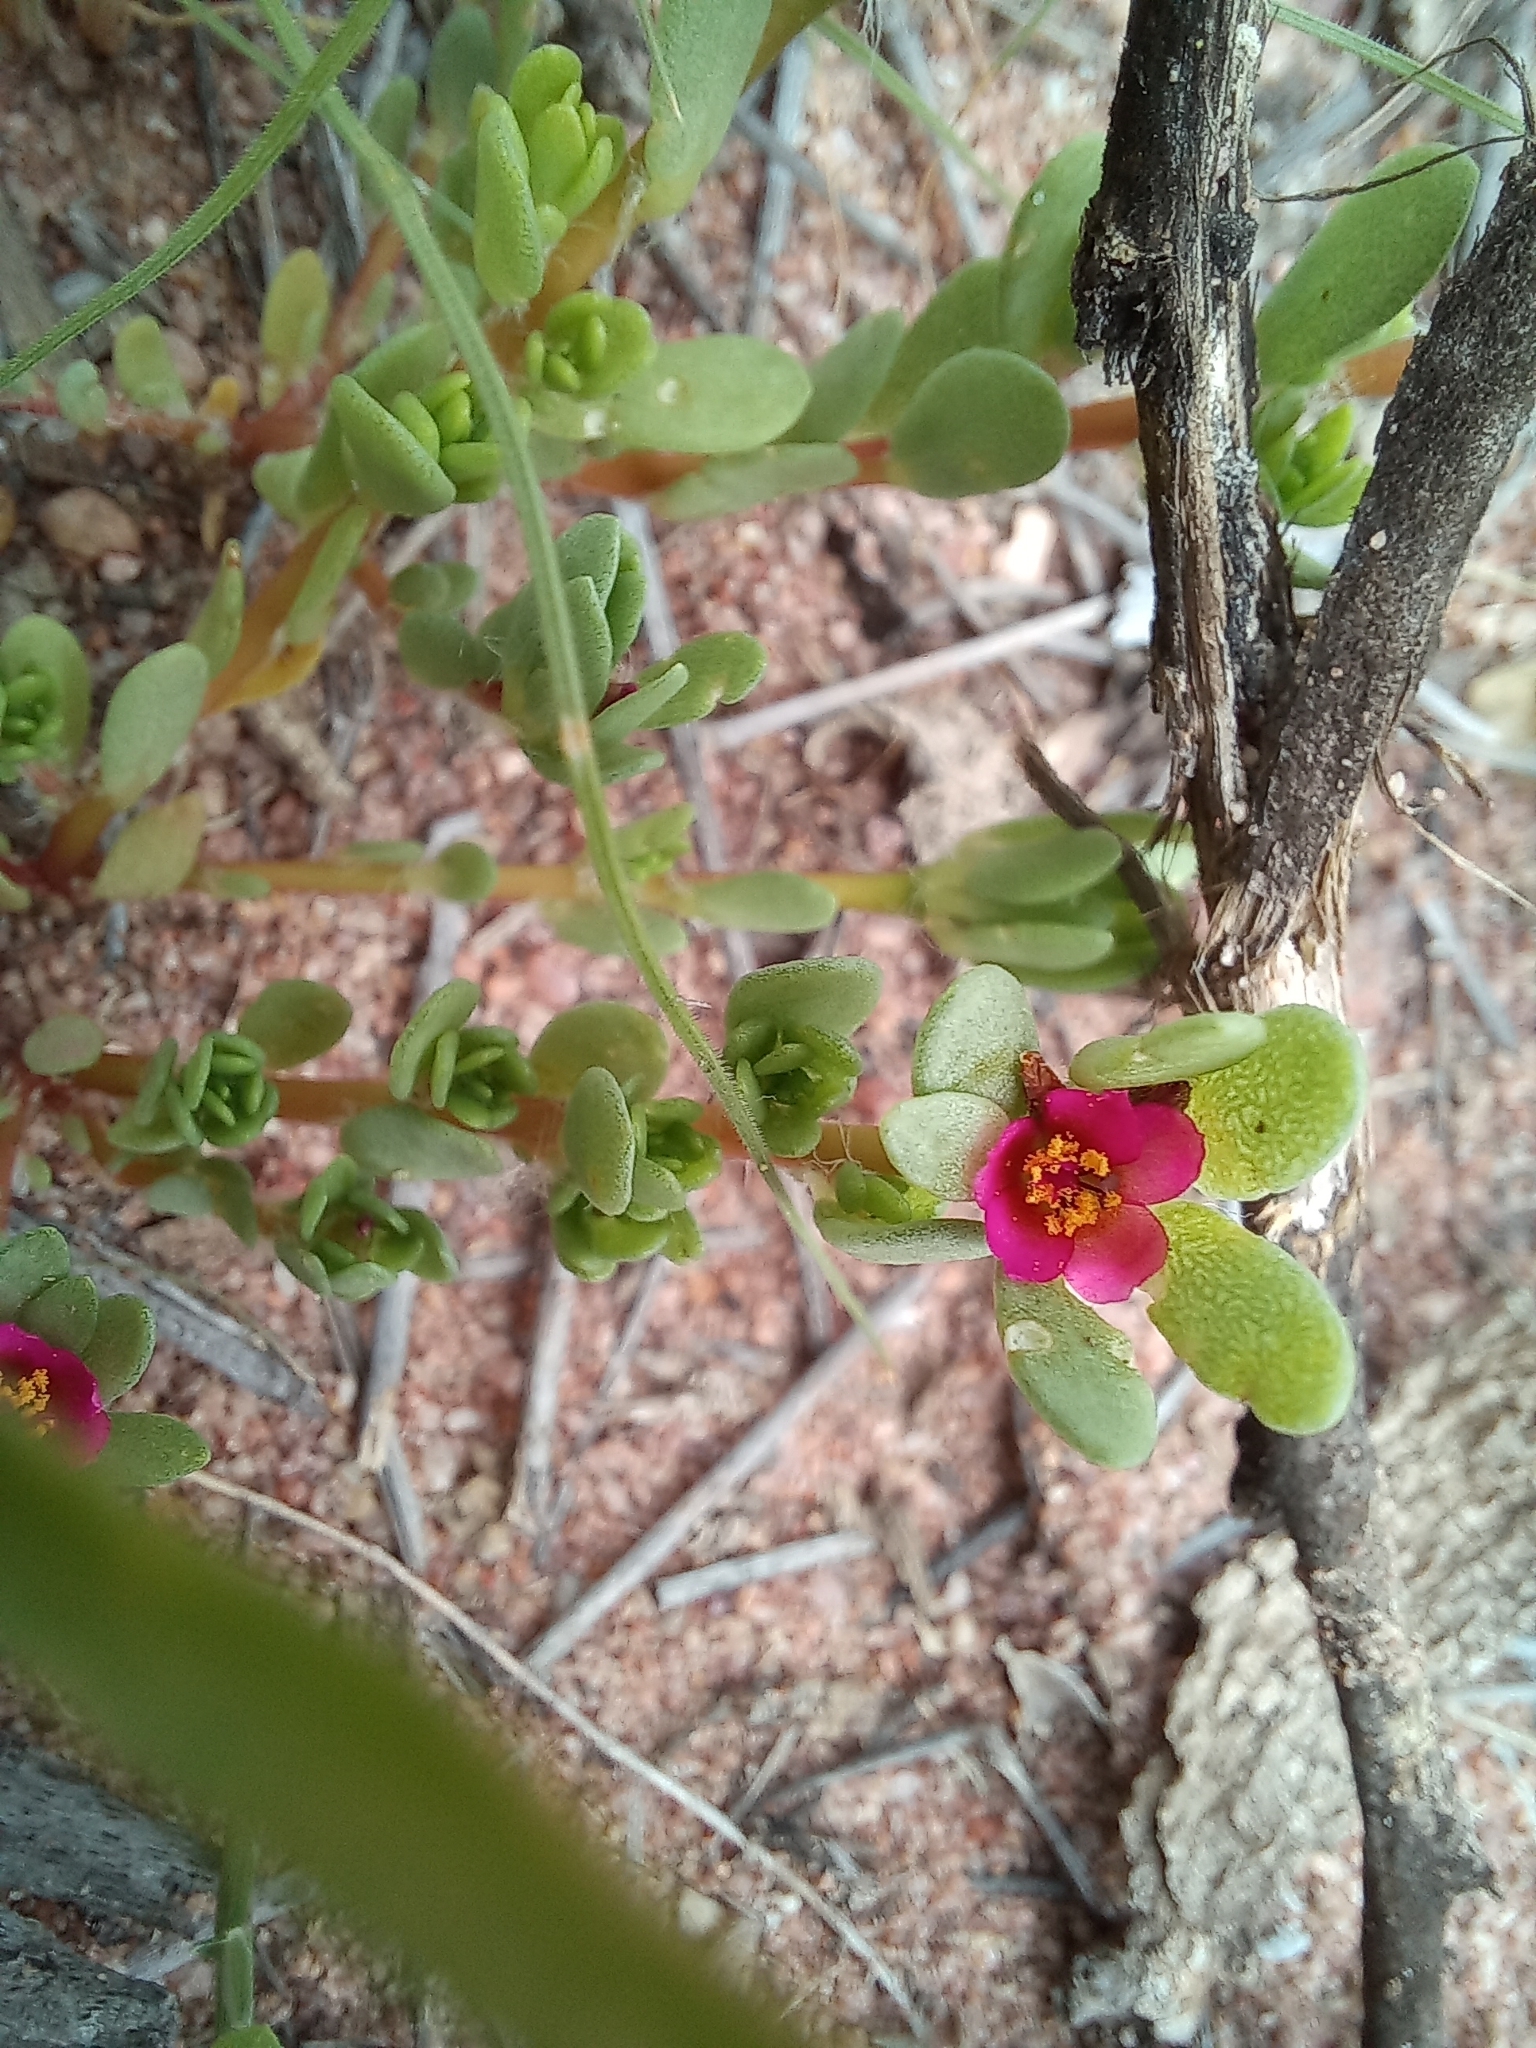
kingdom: Plantae
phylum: Tracheophyta
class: Magnoliopsida
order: Caryophyllales
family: Portulacaceae
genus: Portulaca
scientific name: Portulaca amilis
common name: Paraguayan purslane
